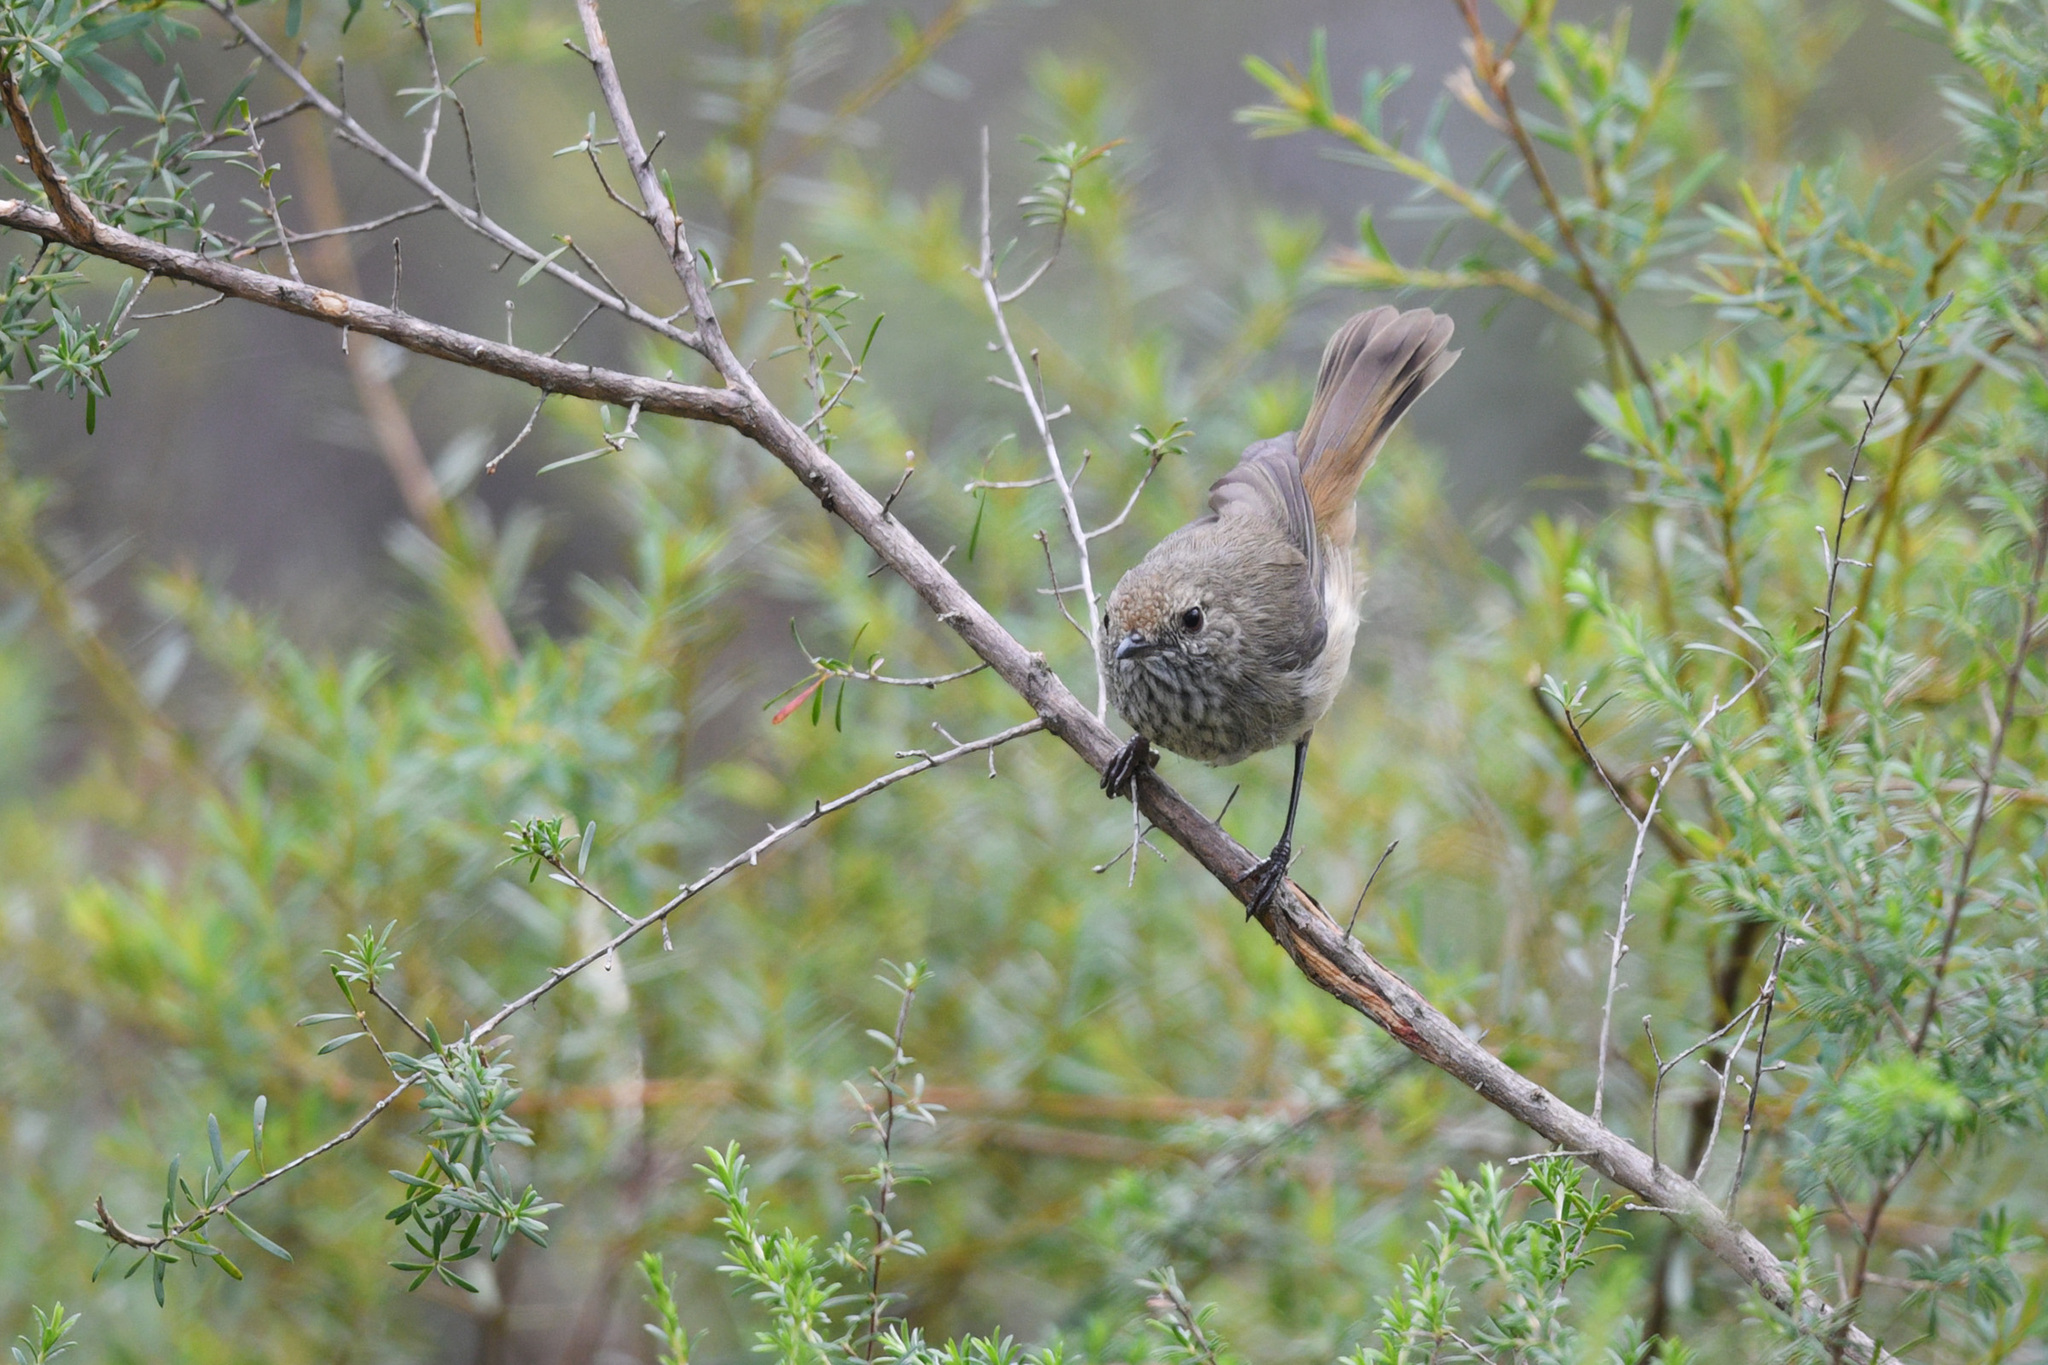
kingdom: Animalia
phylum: Chordata
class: Aves
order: Passeriformes
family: Acanthizidae
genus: Acanthiza
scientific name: Acanthiza pusilla
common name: Brown thornbill
